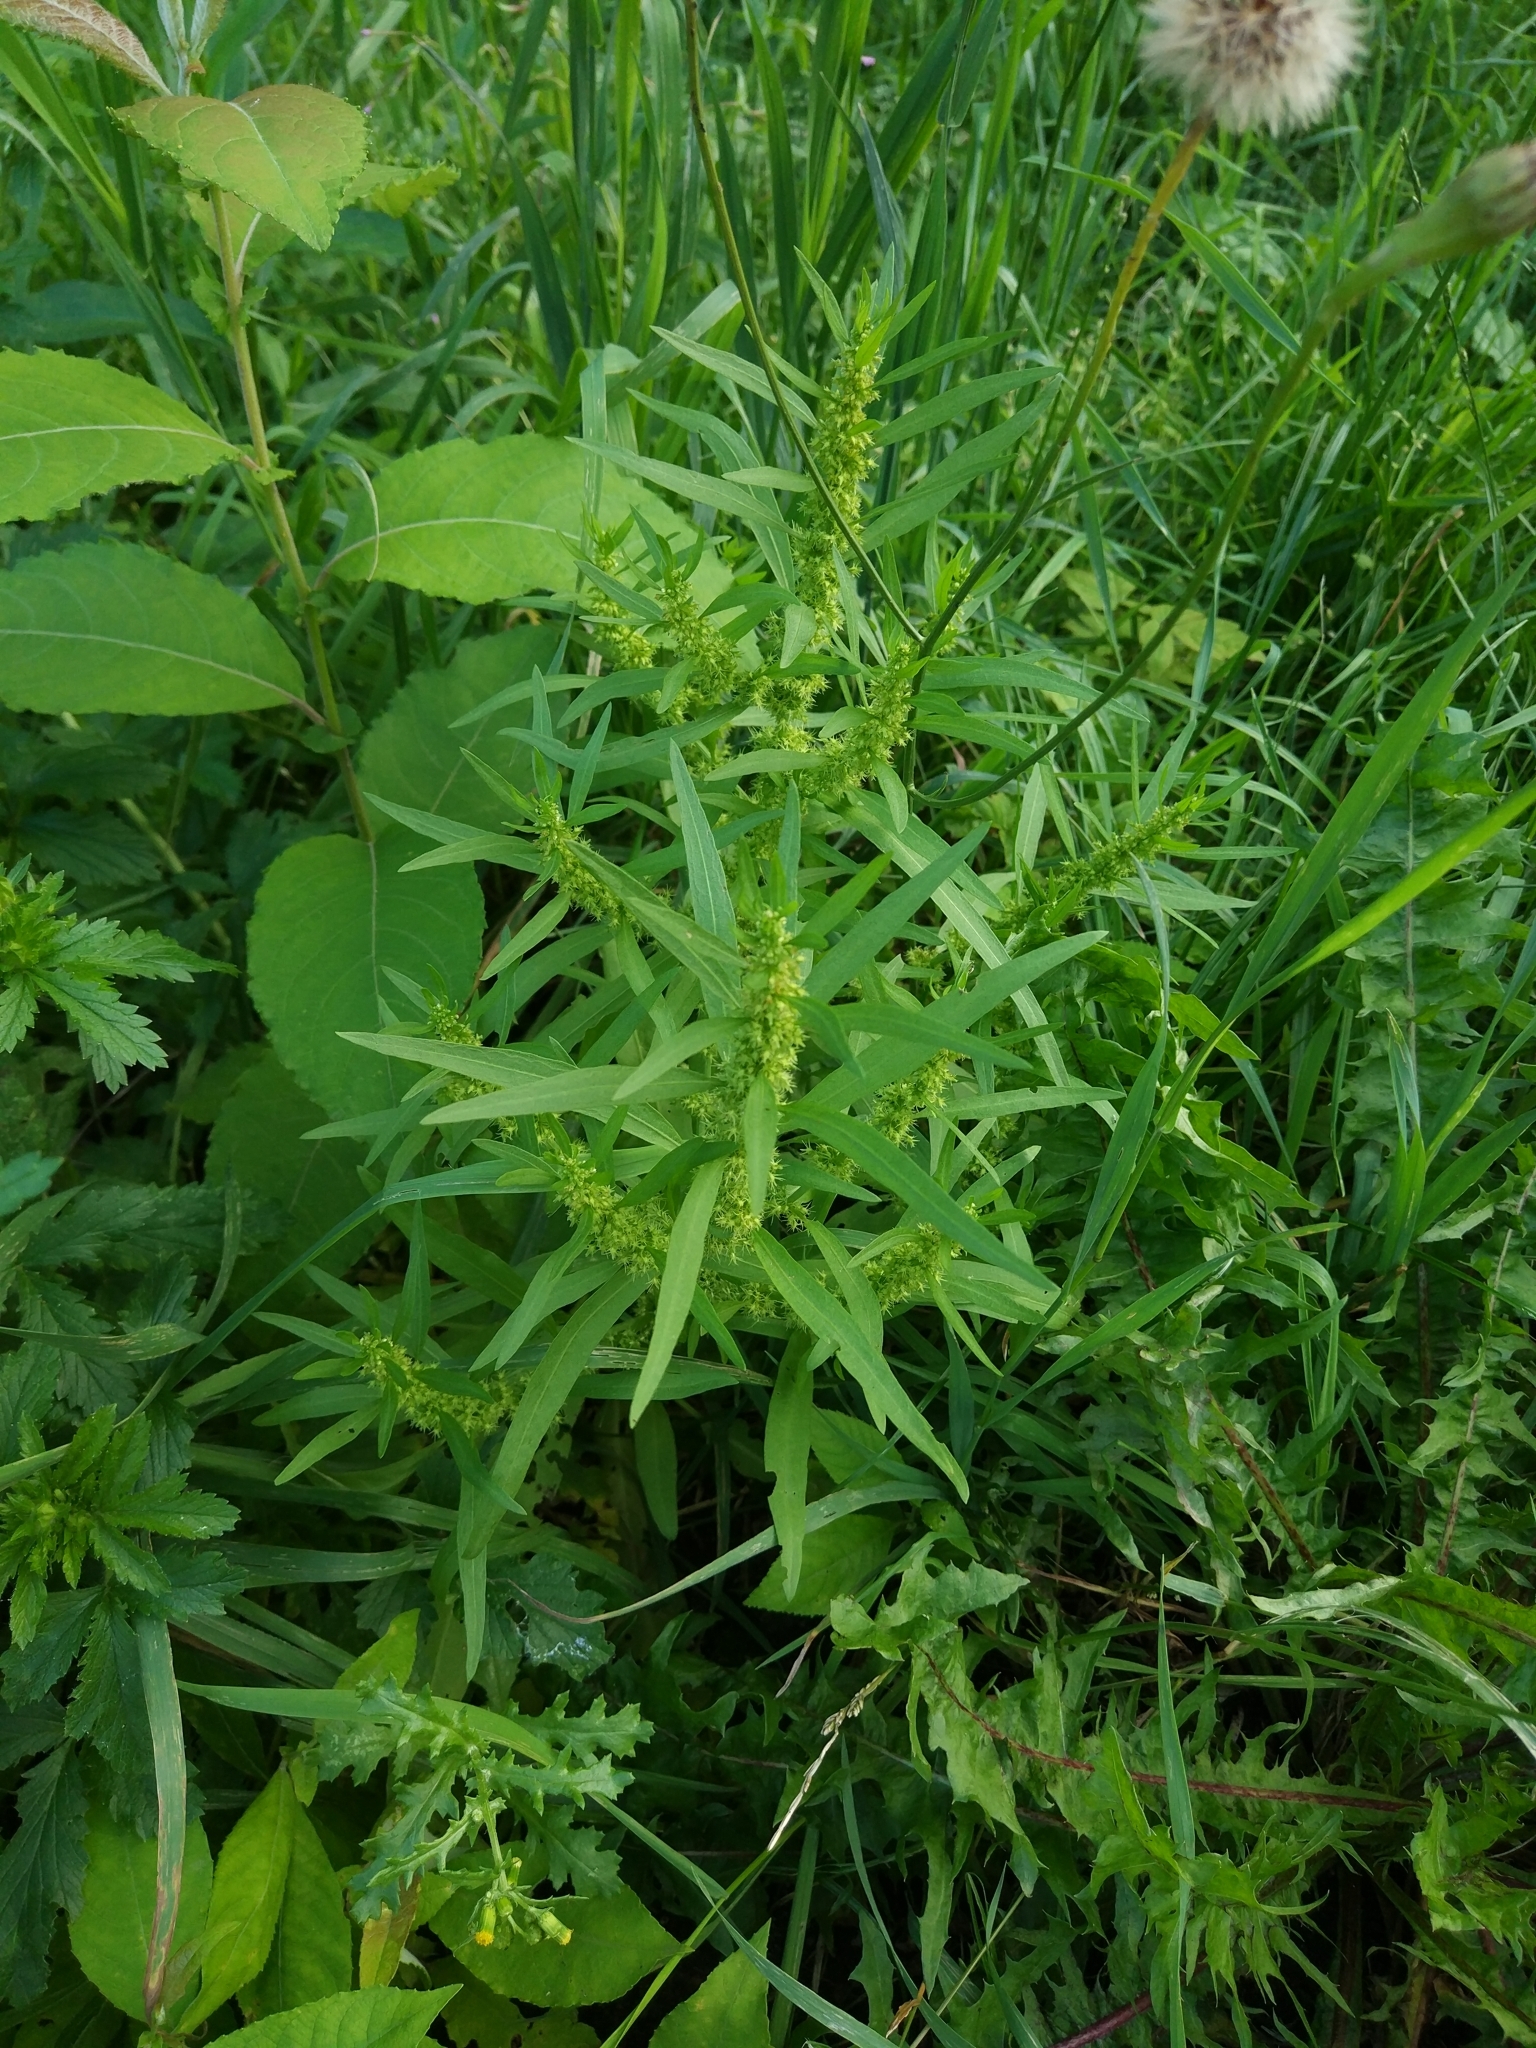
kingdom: Plantae
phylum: Tracheophyta
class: Magnoliopsida
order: Caryophyllales
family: Polygonaceae
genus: Rumex
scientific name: Rumex maritimus
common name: Golden dock
